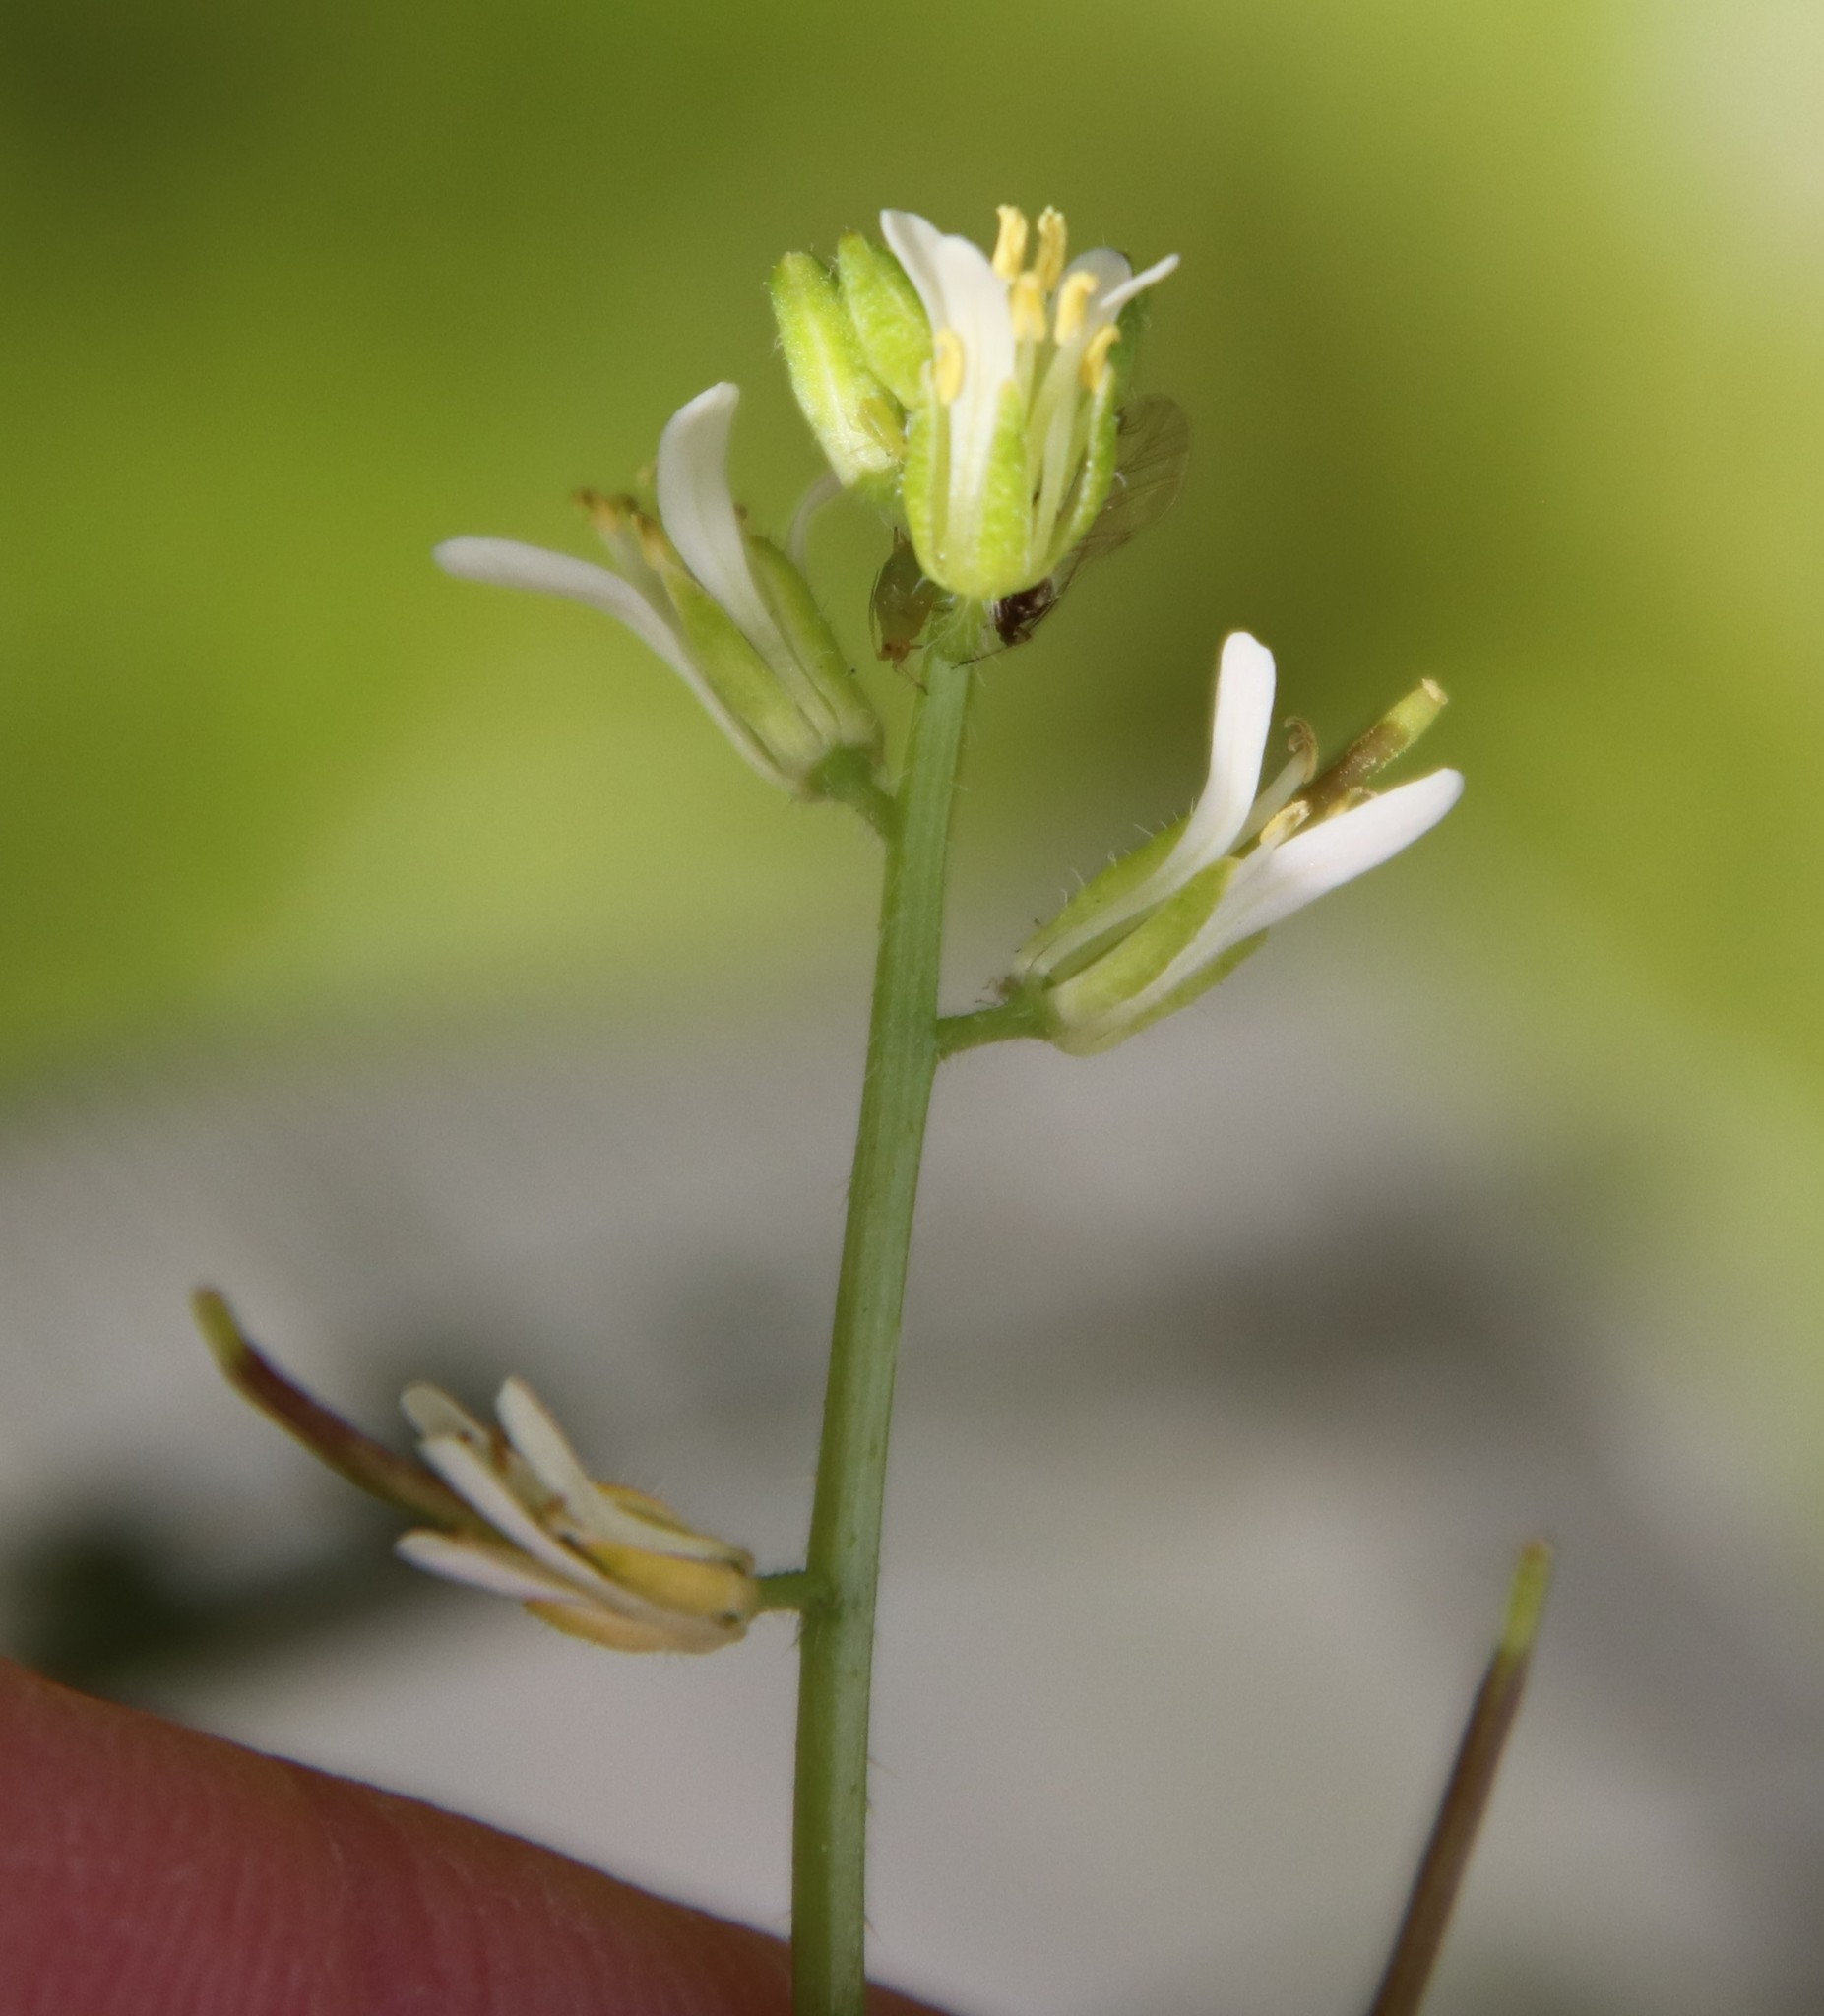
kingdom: Plantae
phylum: Tracheophyta
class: Magnoliopsida
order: Brassicales
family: Brassicaceae
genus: Streptanthus
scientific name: Streptanthus lasiophyllus
